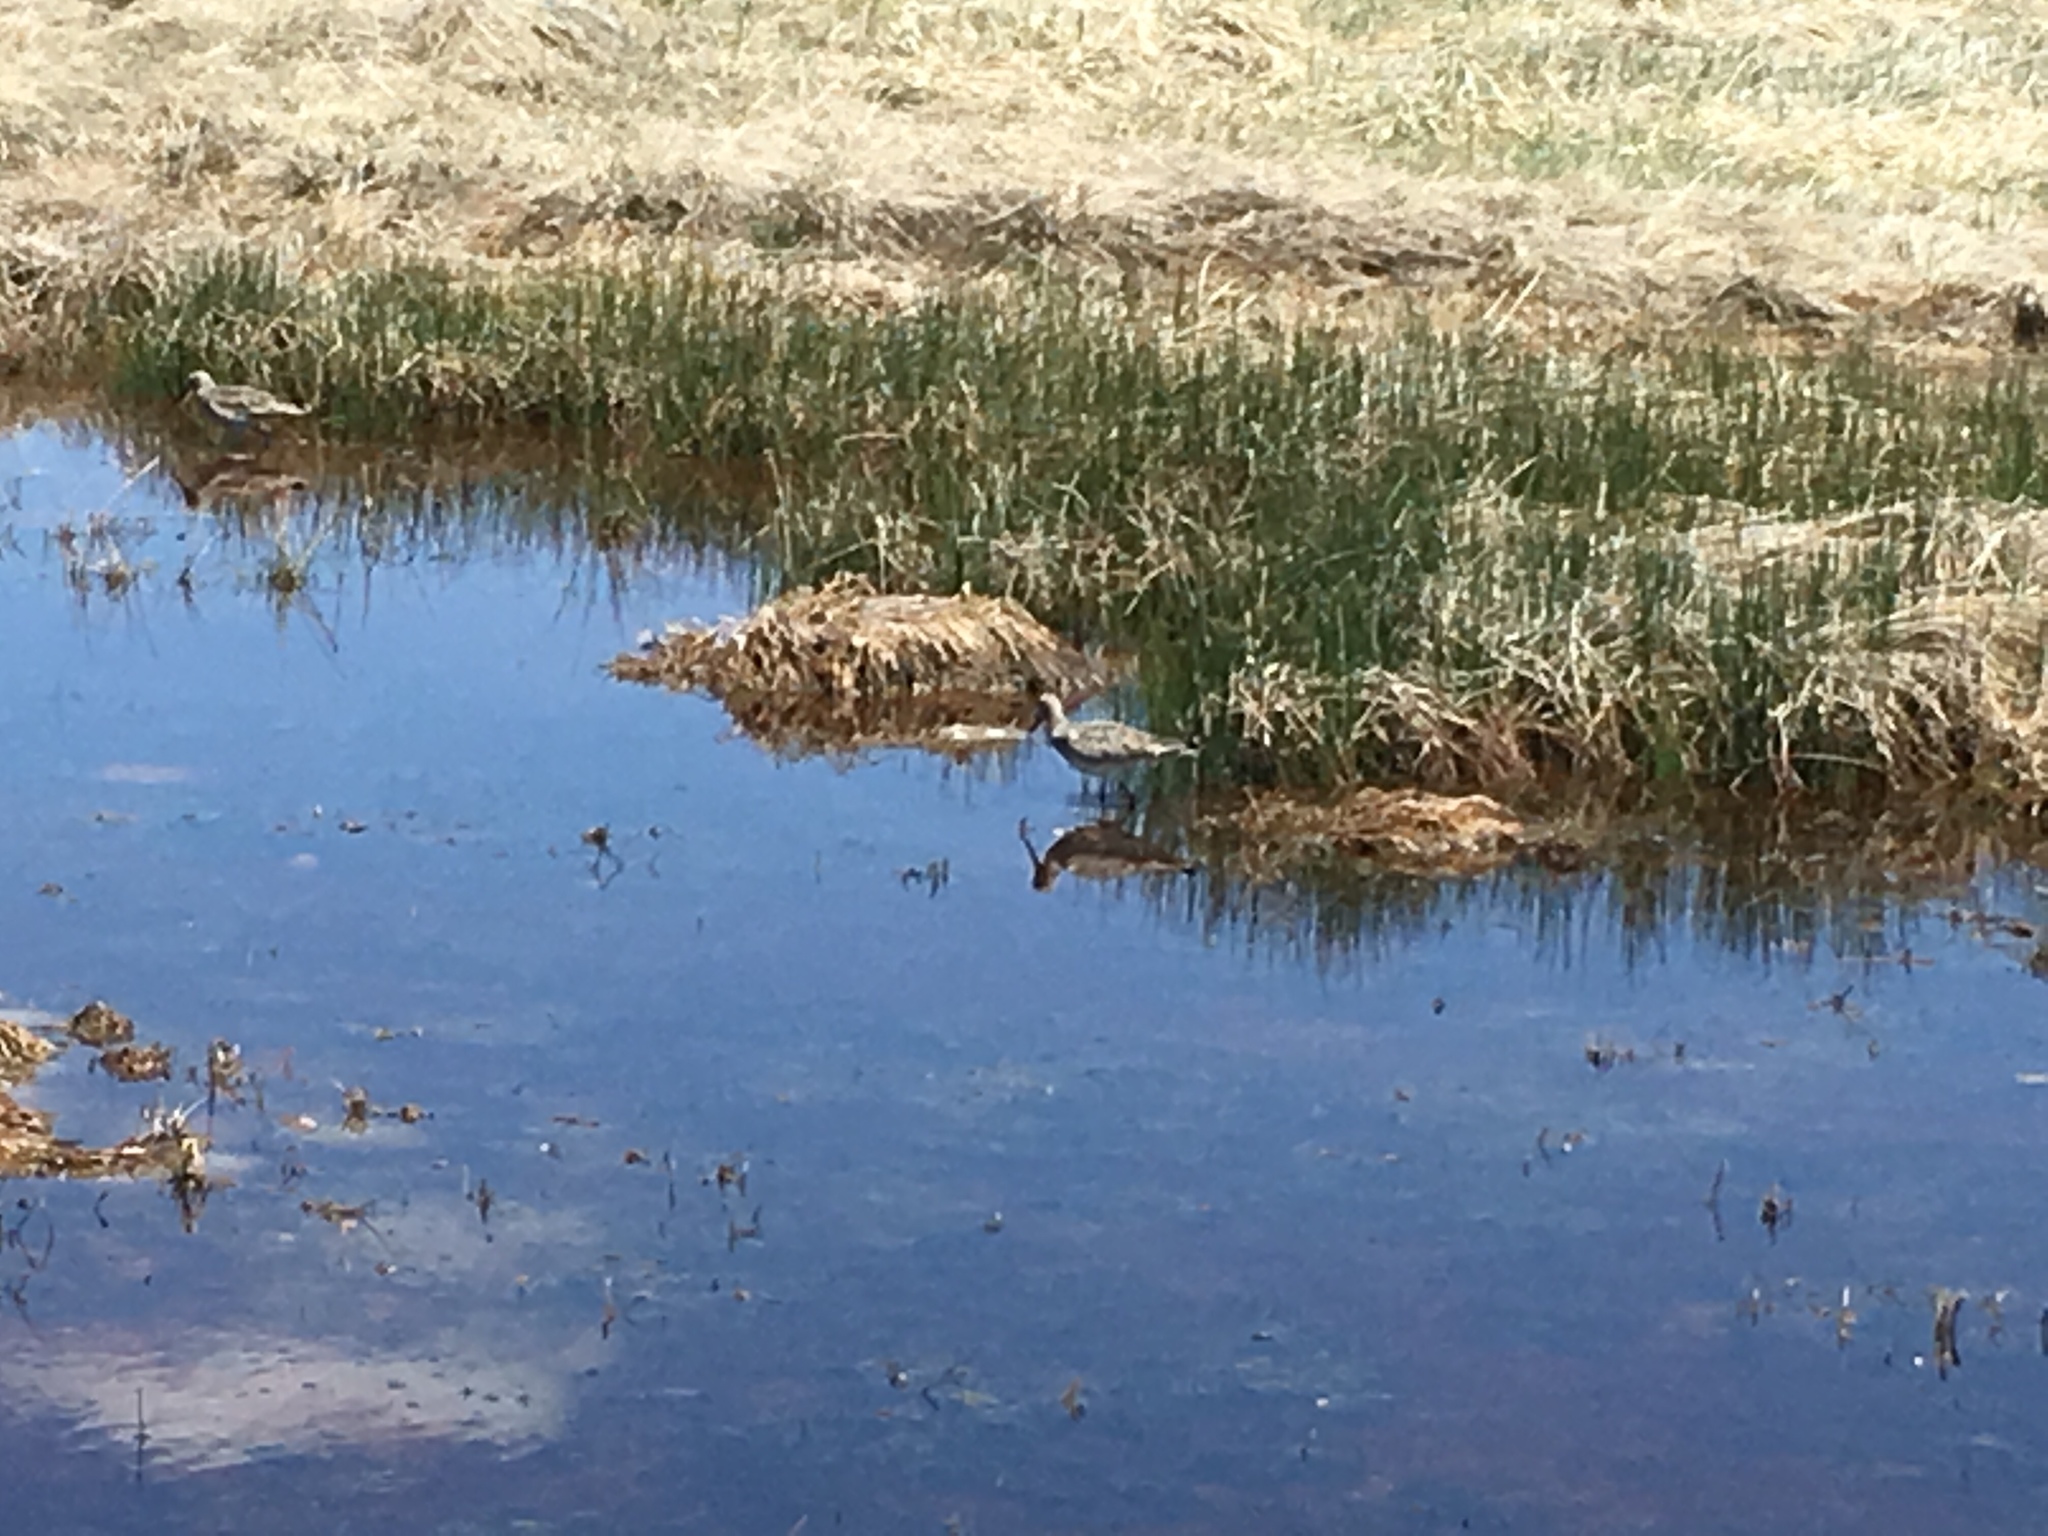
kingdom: Animalia
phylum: Chordata
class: Aves
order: Charadriiformes
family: Scolopacidae
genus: Tringa
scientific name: Tringa semipalmata
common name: Willet
